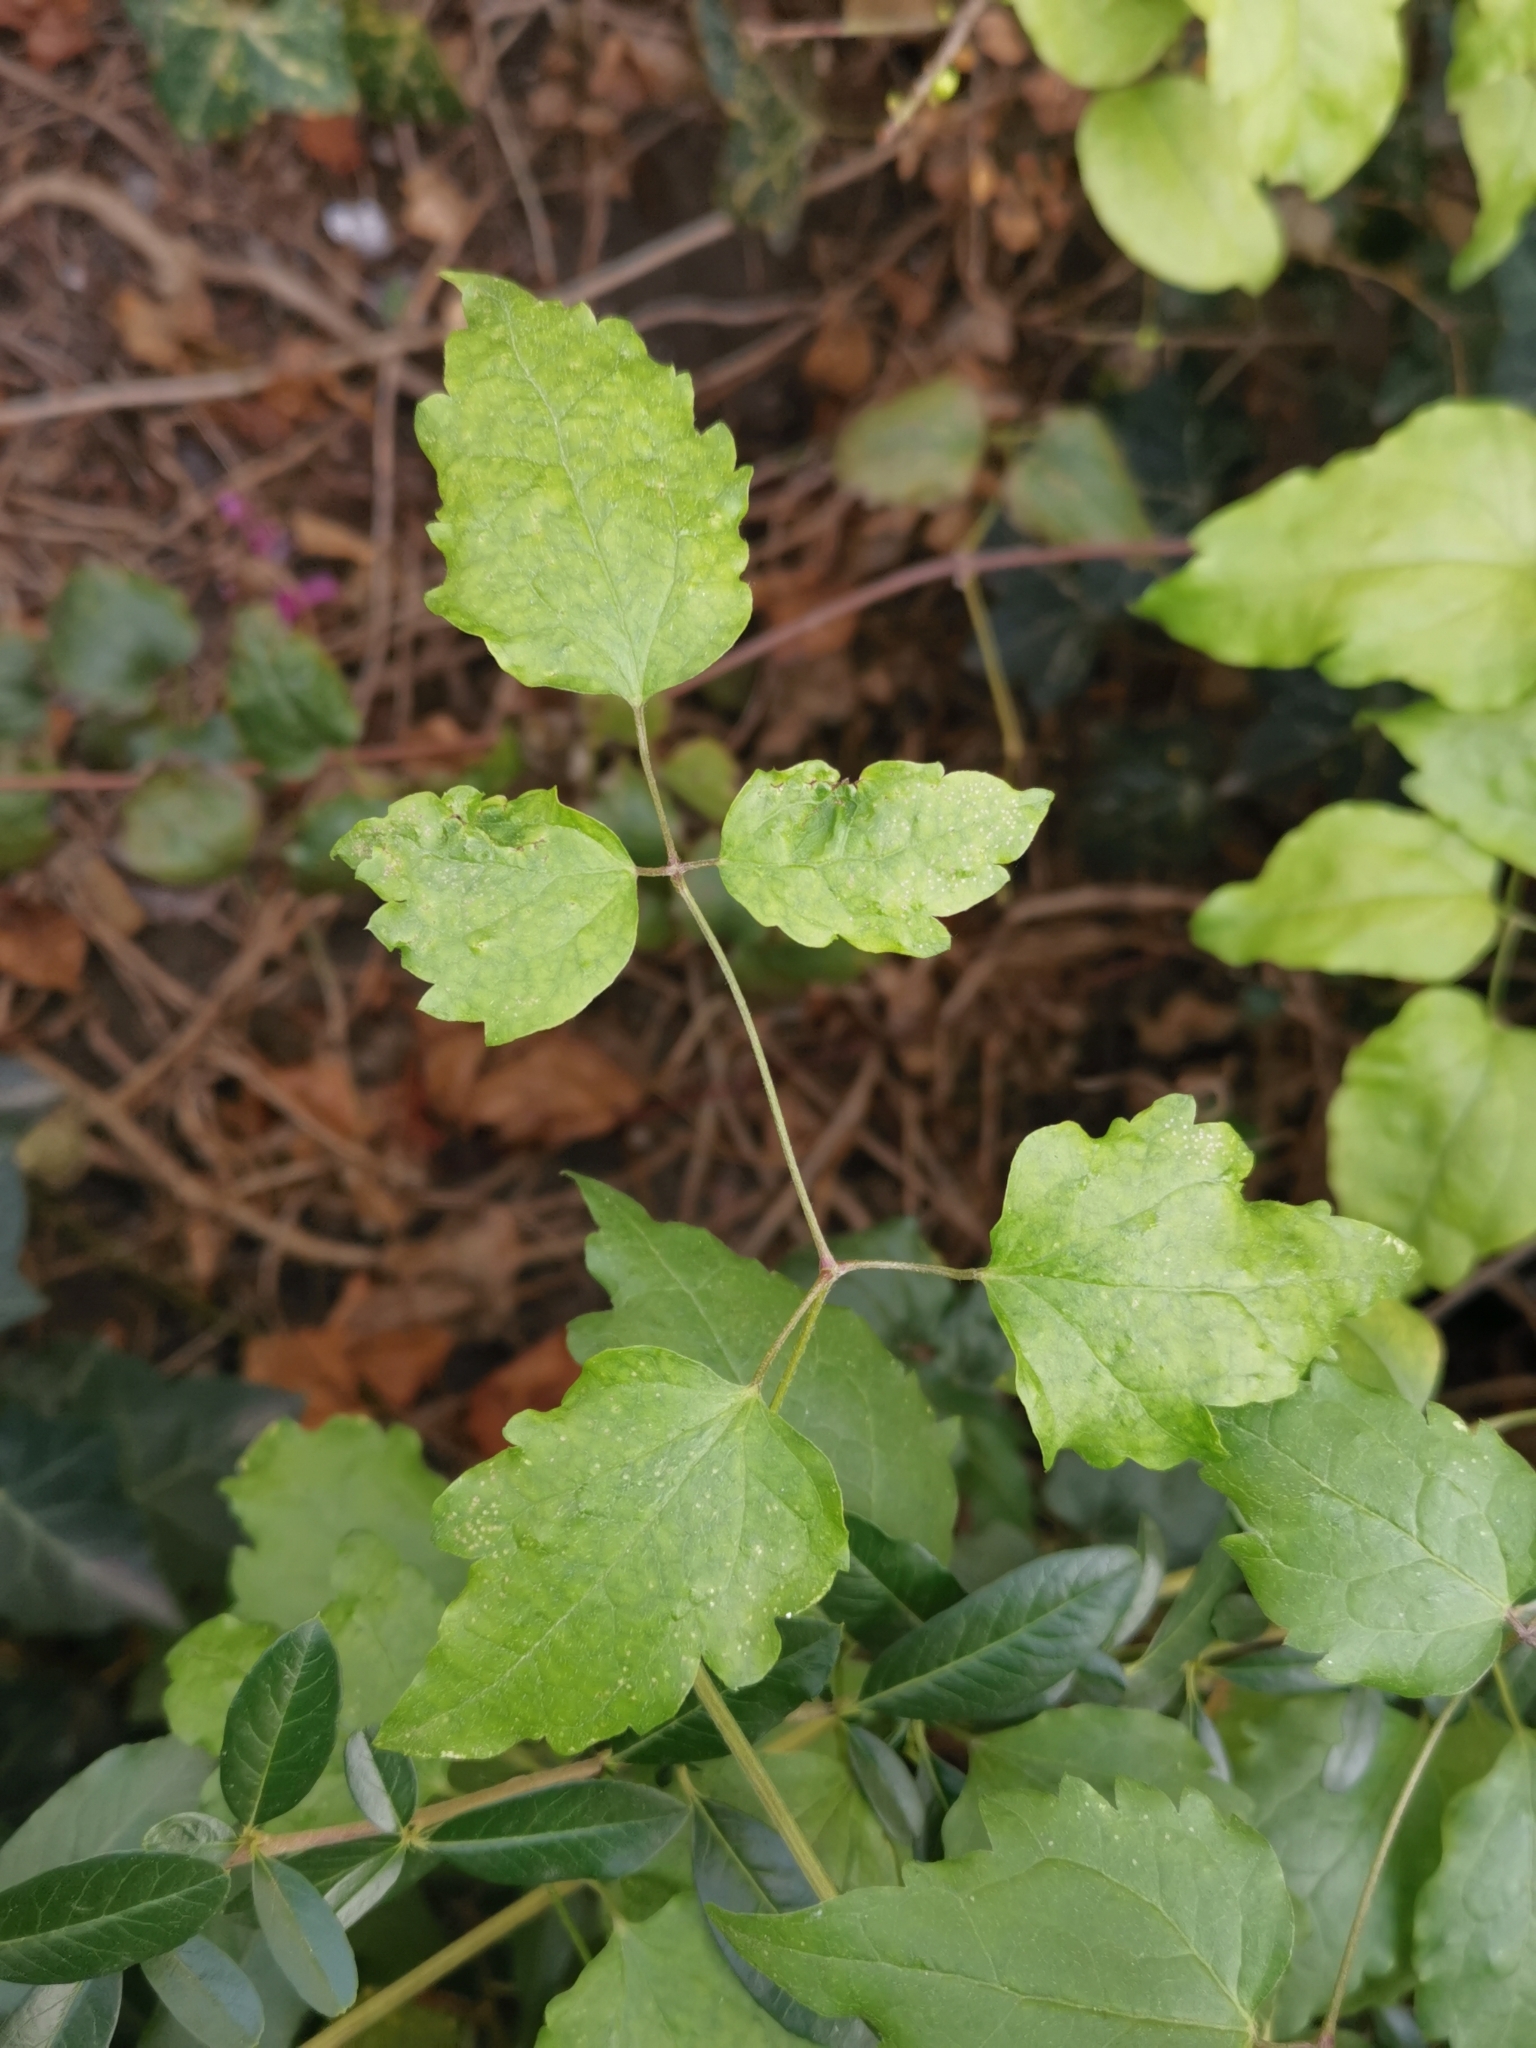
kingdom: Plantae
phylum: Tracheophyta
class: Magnoliopsida
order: Ranunculales
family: Ranunculaceae
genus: Clematis
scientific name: Clematis vitalba
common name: Evergreen clematis
